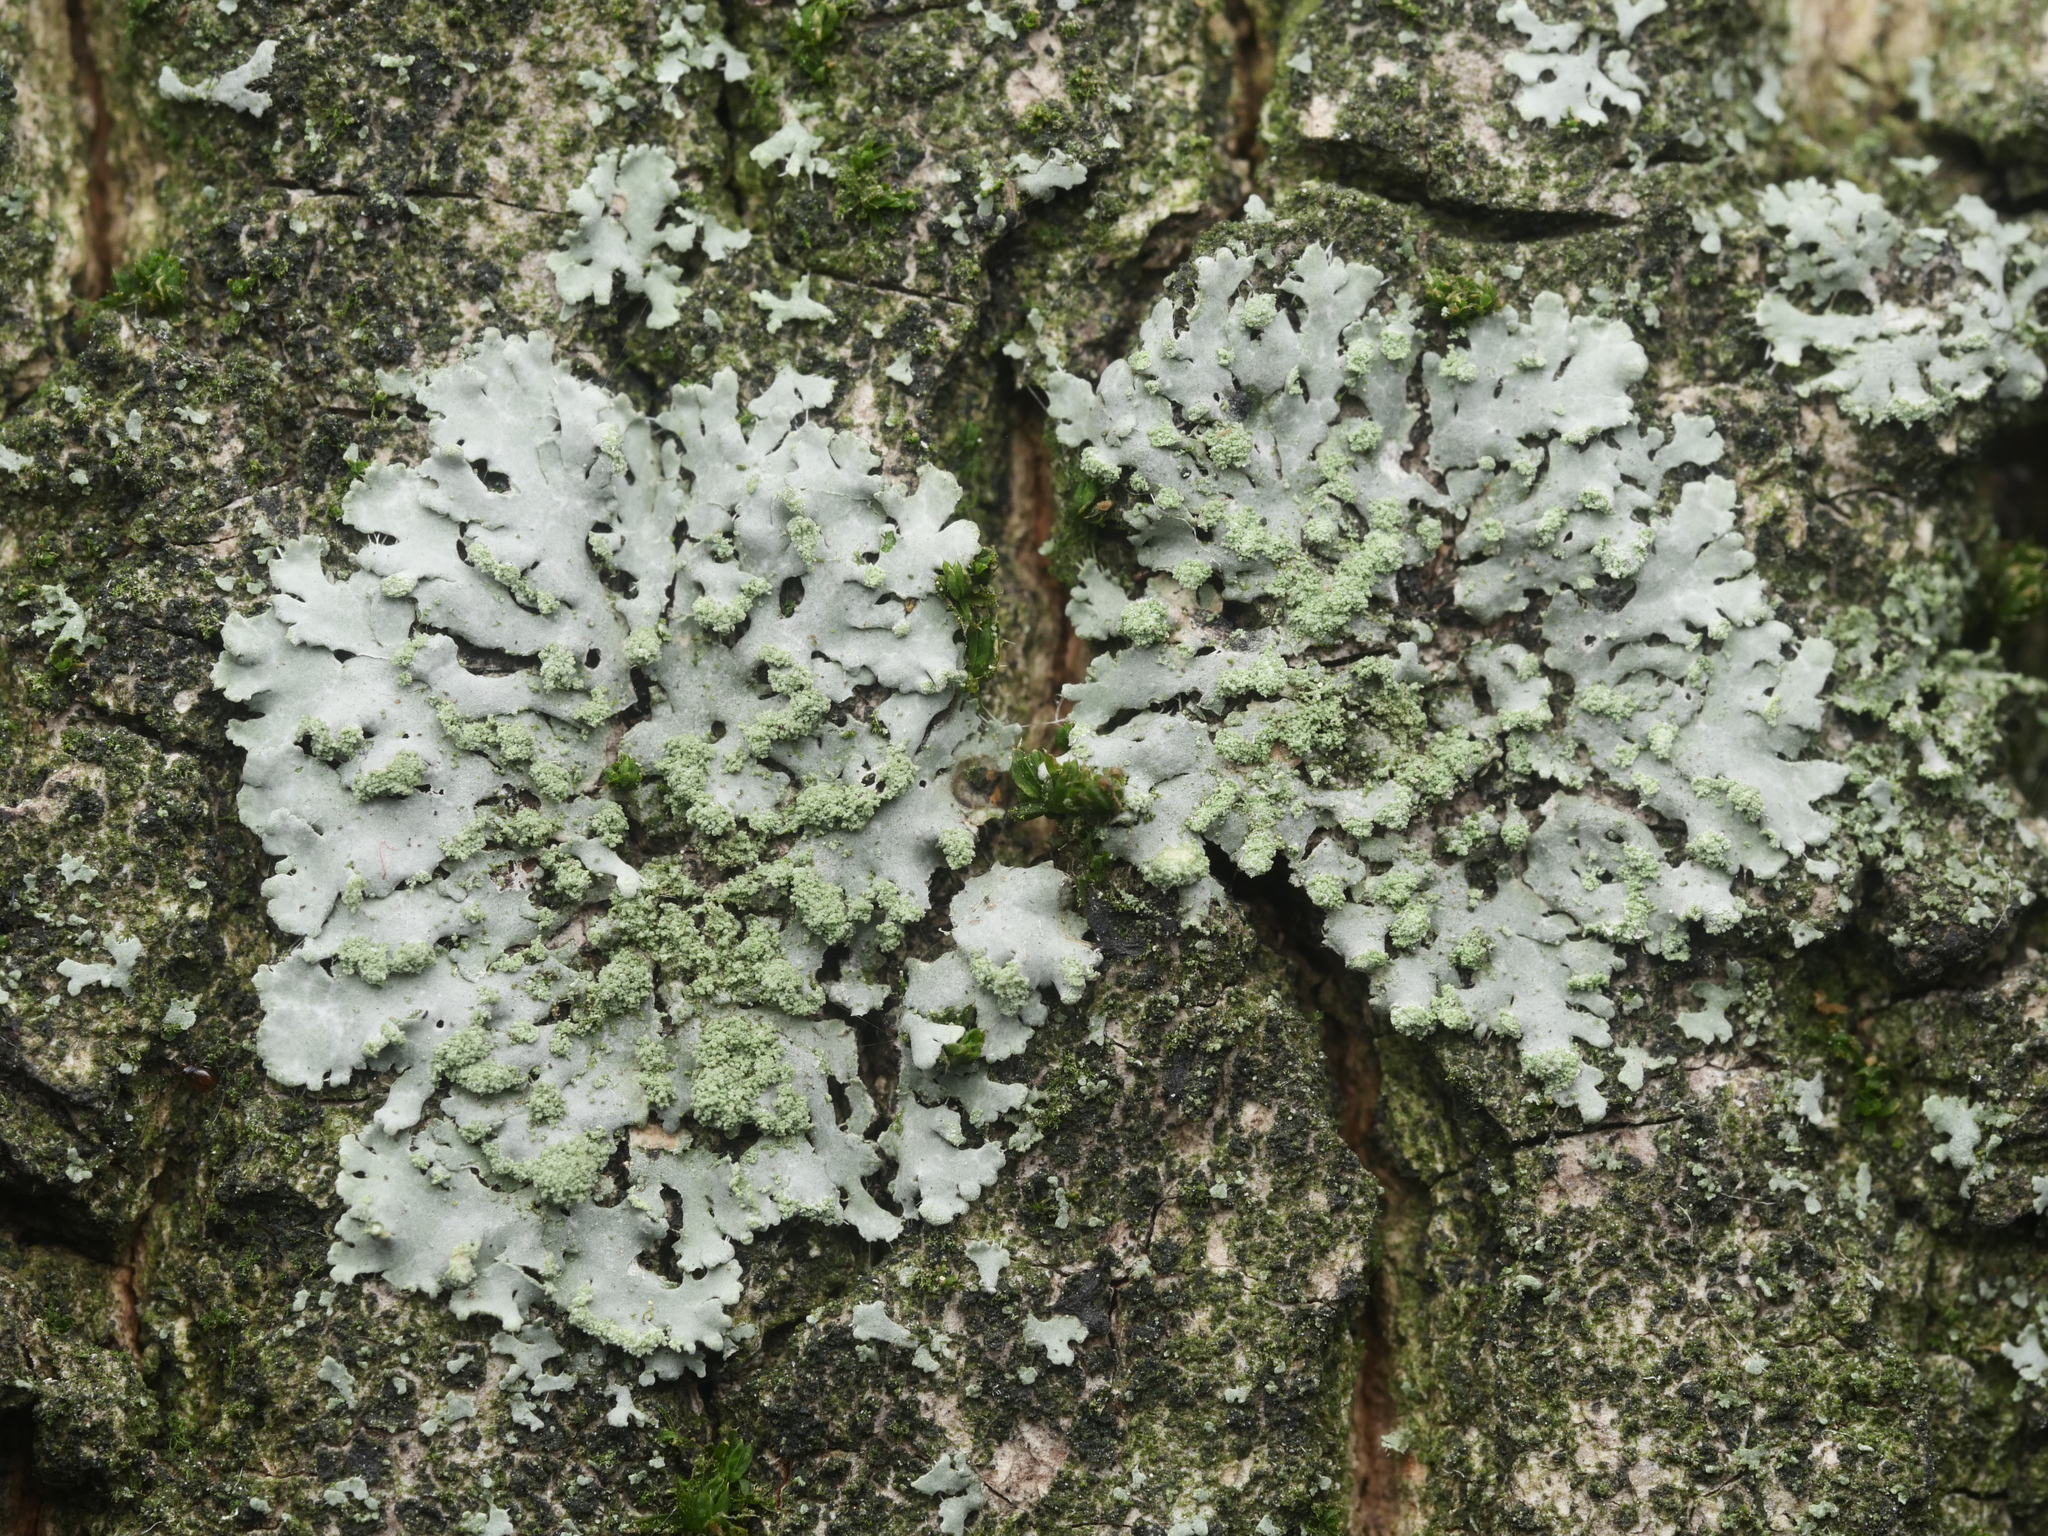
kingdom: Fungi
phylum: Ascomycota
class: Lecanoromycetes
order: Caliciales
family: Physciaceae
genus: Phaeophyscia
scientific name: Phaeophyscia orbicularis
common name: Mealy shadow lichen
